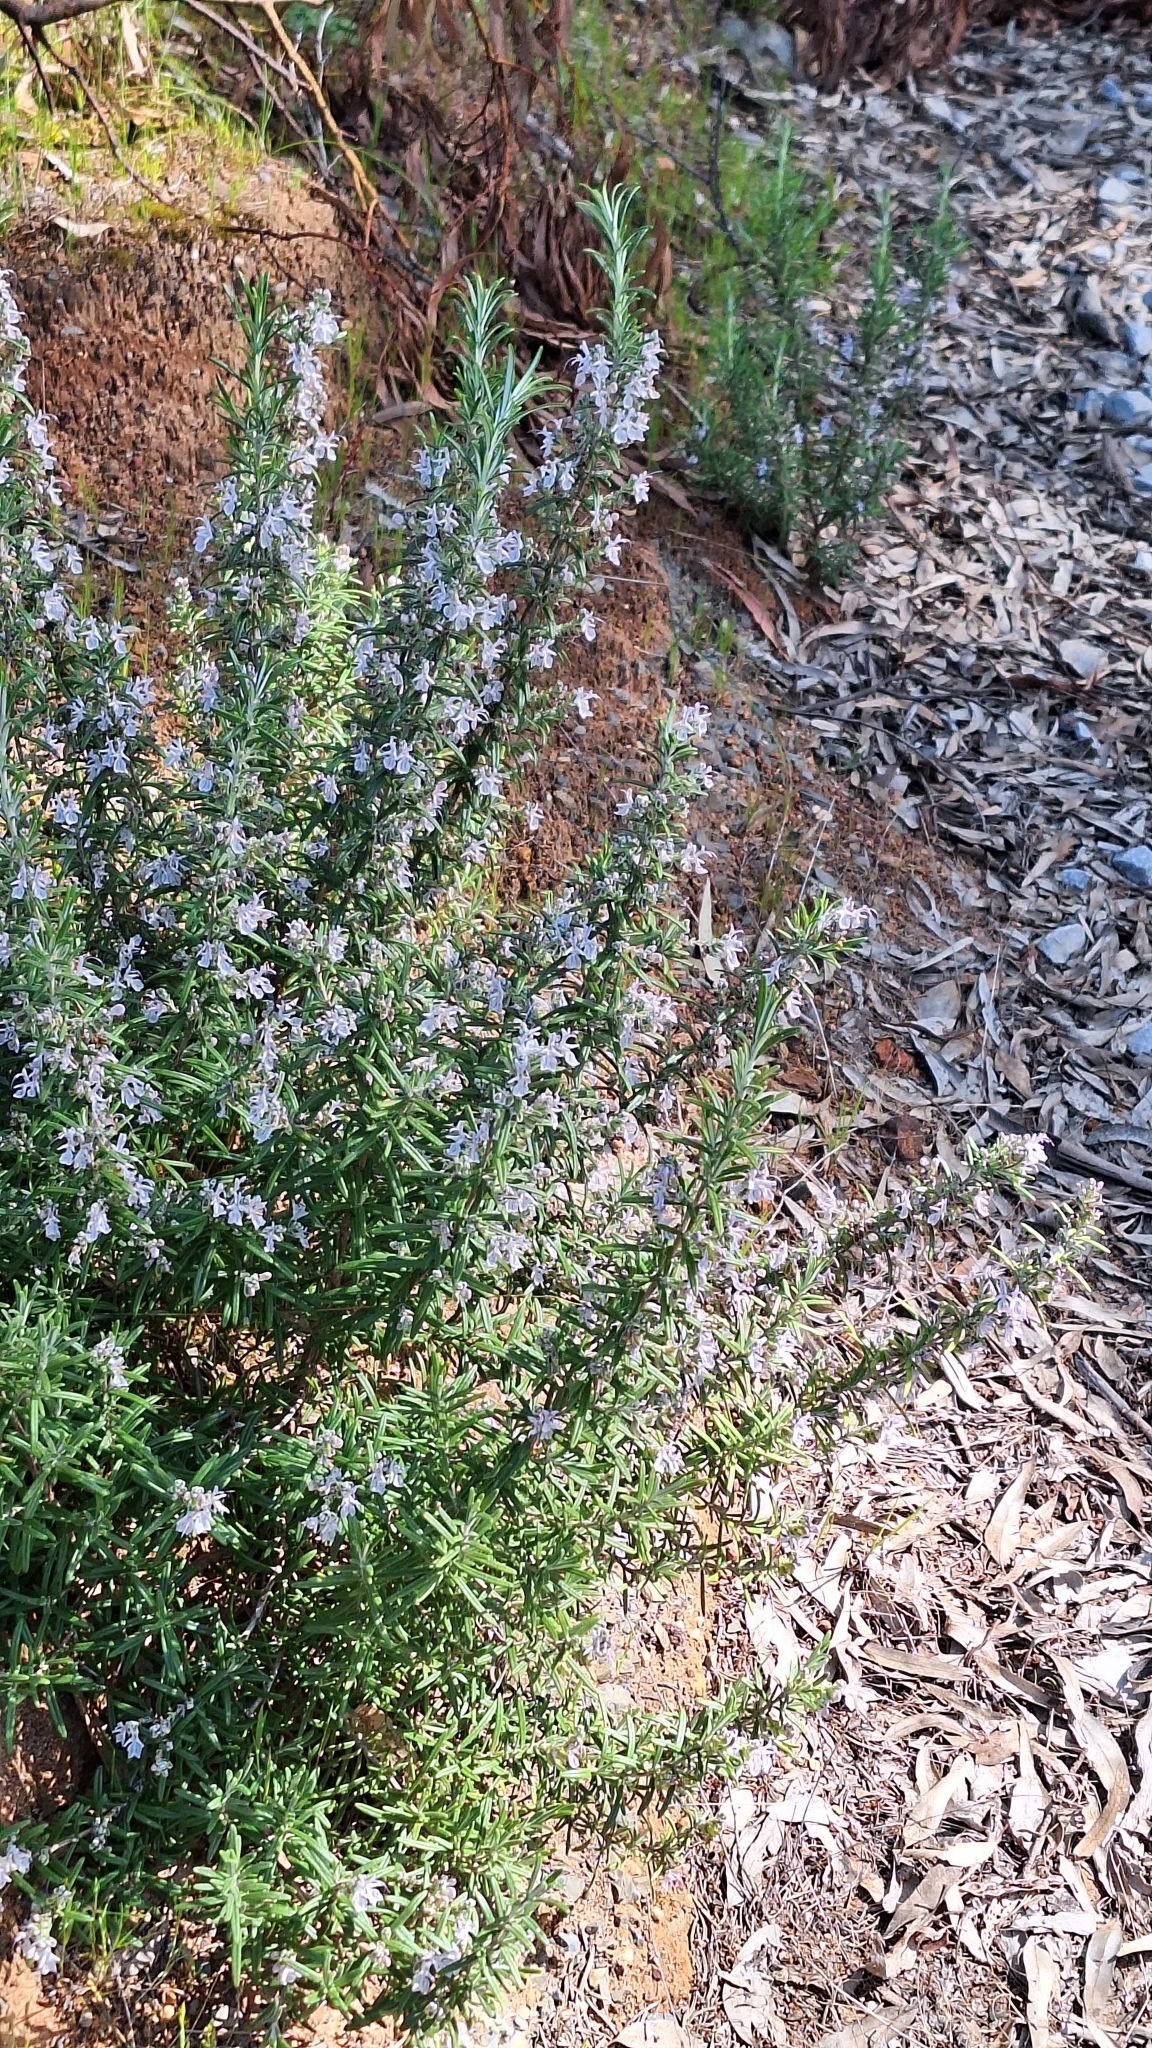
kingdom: Plantae
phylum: Tracheophyta
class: Magnoliopsida
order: Lamiales
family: Lamiaceae
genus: Salvia
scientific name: Salvia rosmarinus
